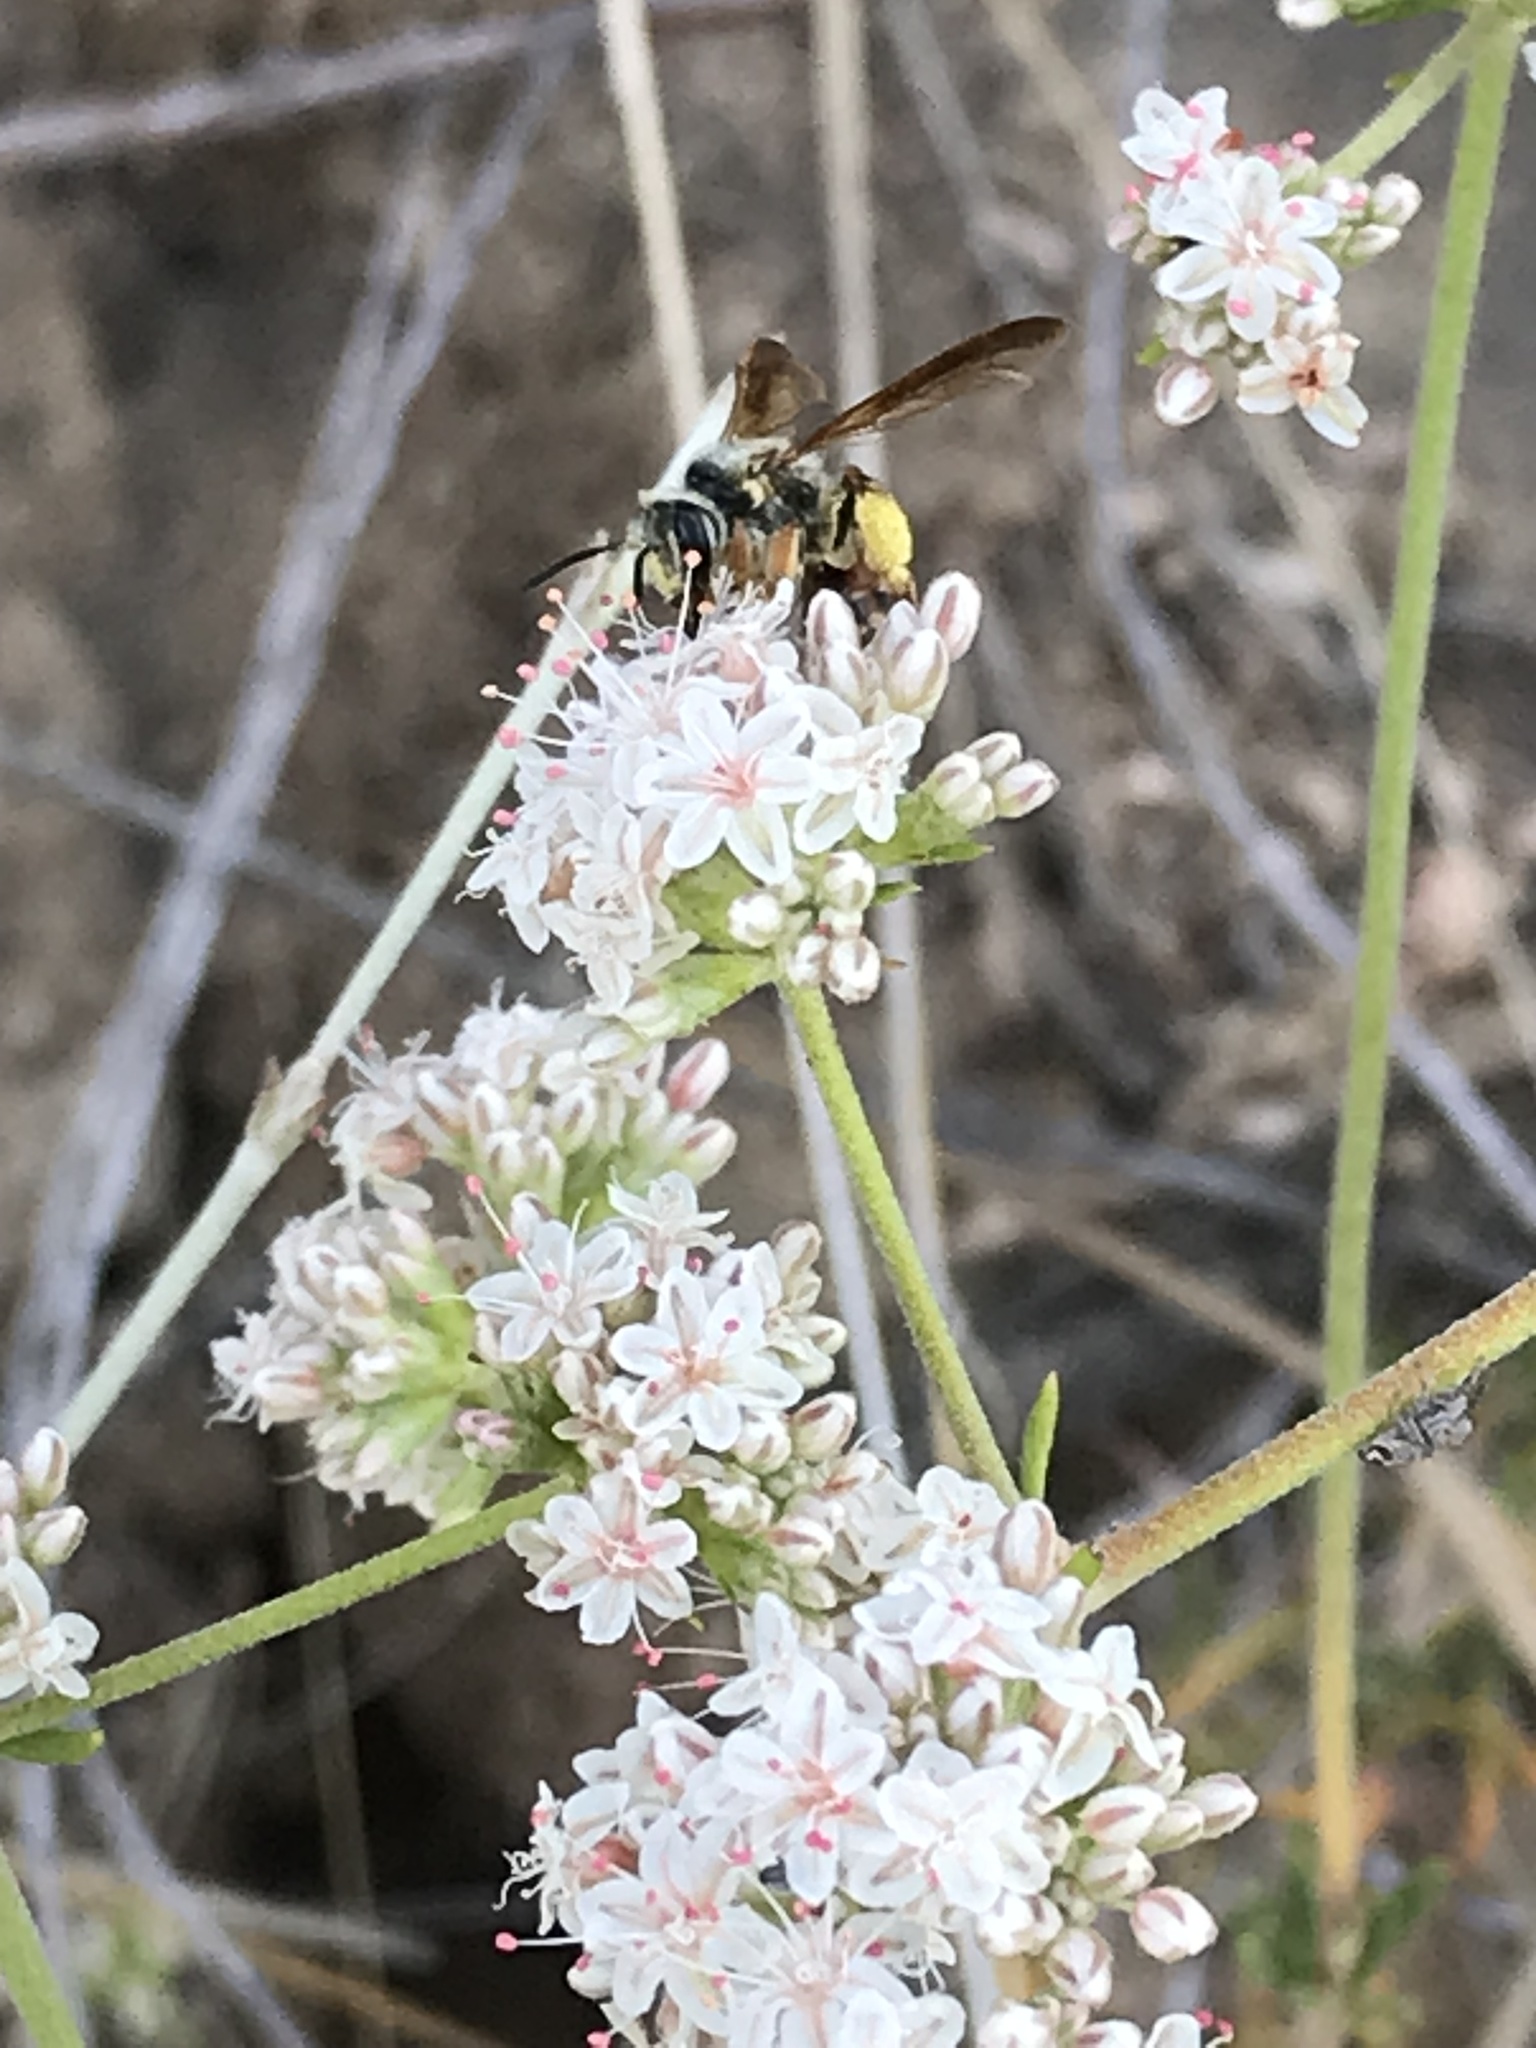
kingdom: Animalia
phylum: Arthropoda
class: Insecta
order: Hymenoptera
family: Andrenidae
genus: Andrena
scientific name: Andrena prunorum
